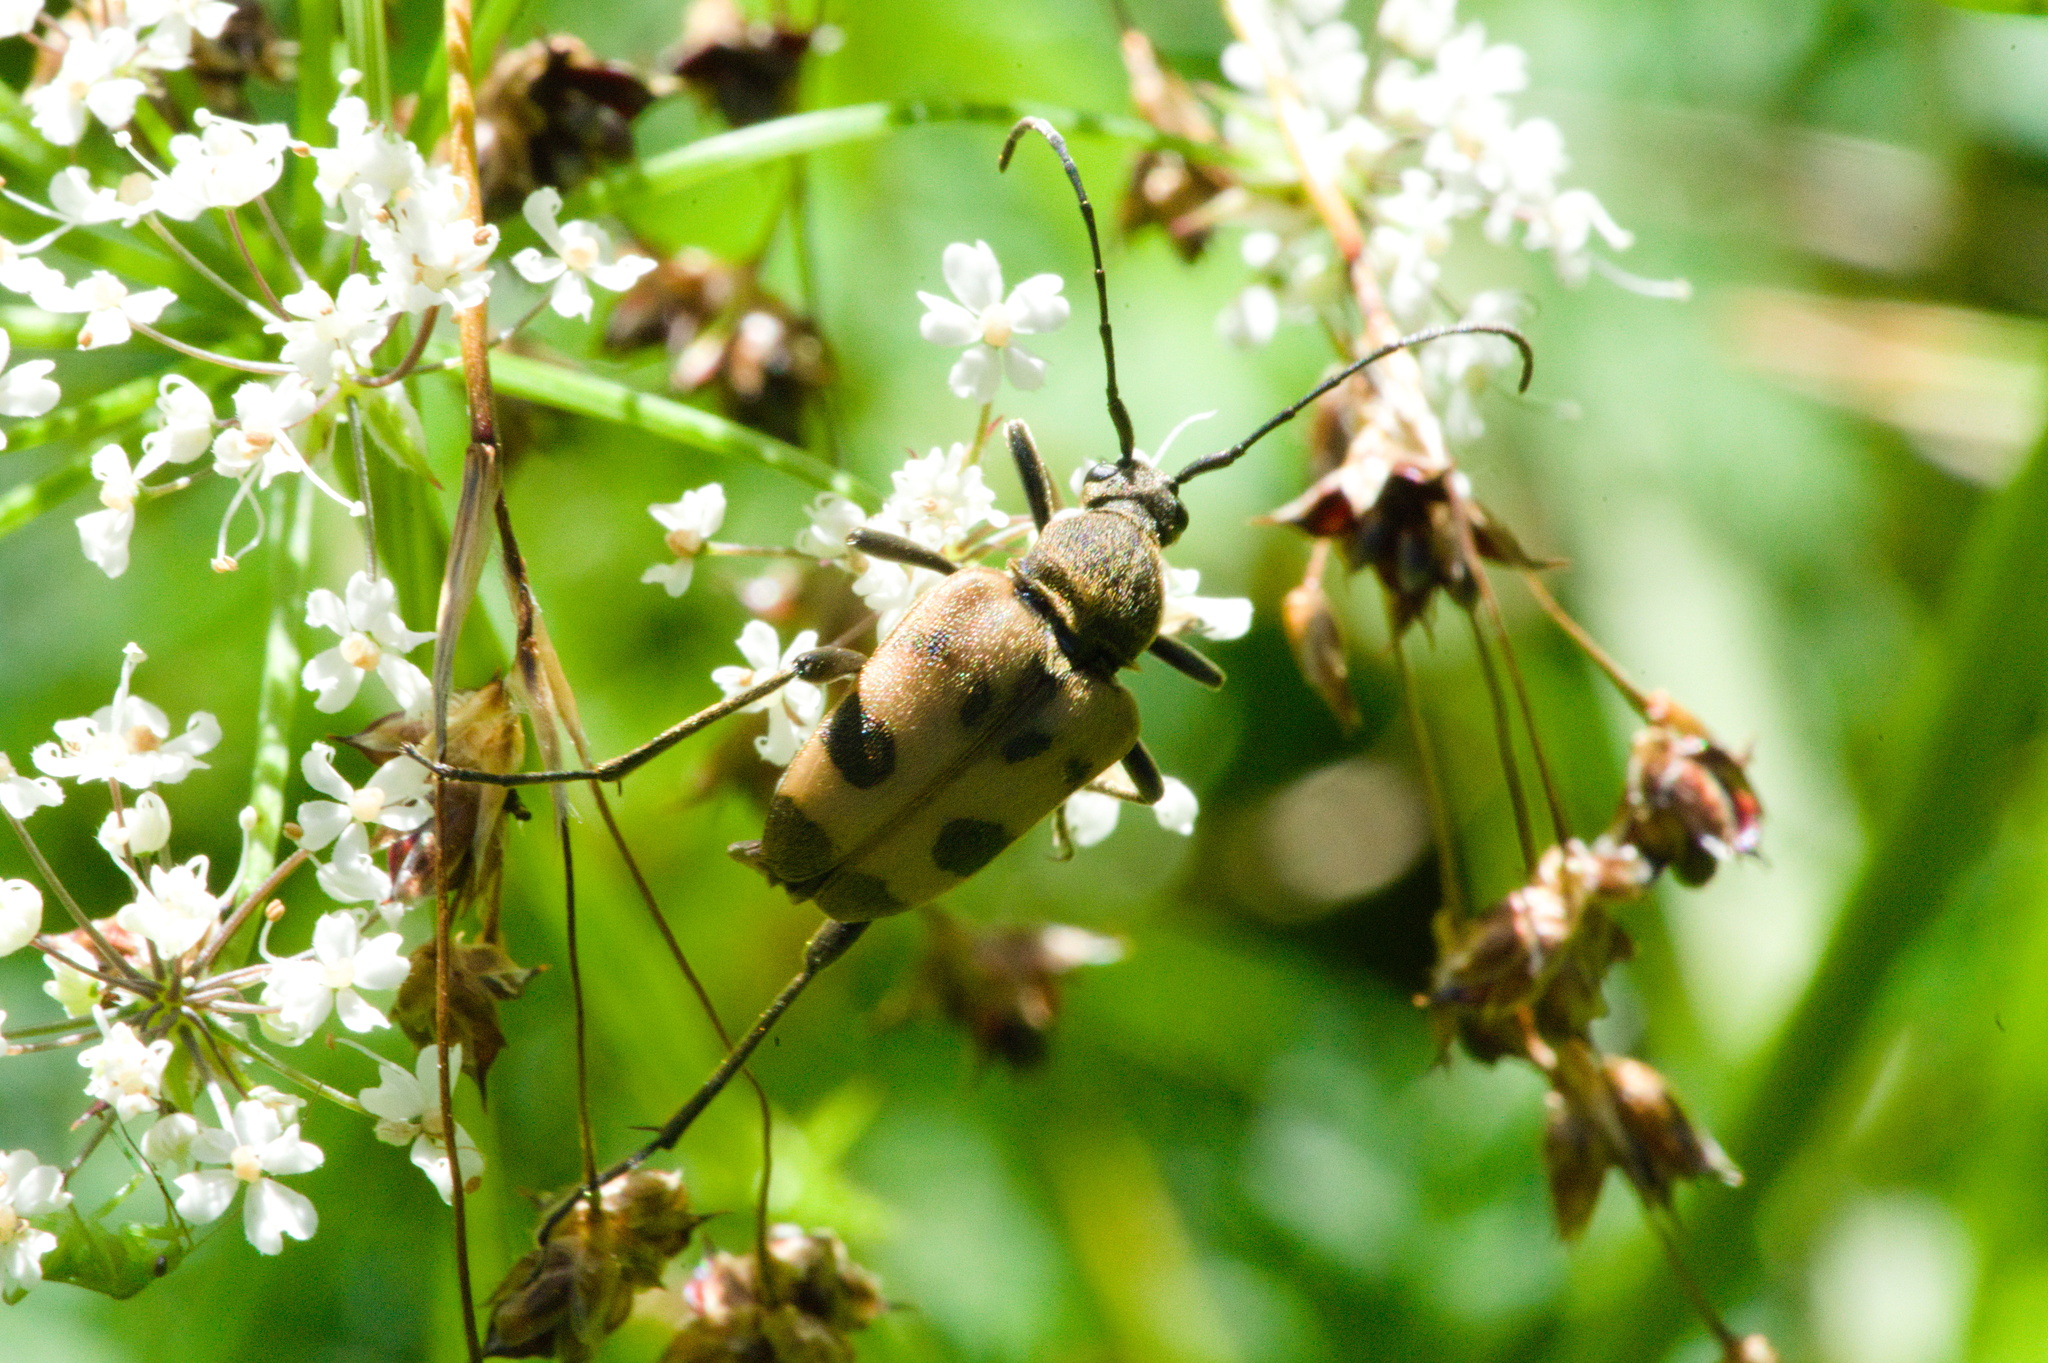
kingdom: Animalia
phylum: Arthropoda
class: Insecta
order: Coleoptera
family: Cerambycidae
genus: Pachytodes
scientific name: Pachytodes cerambyciformis
